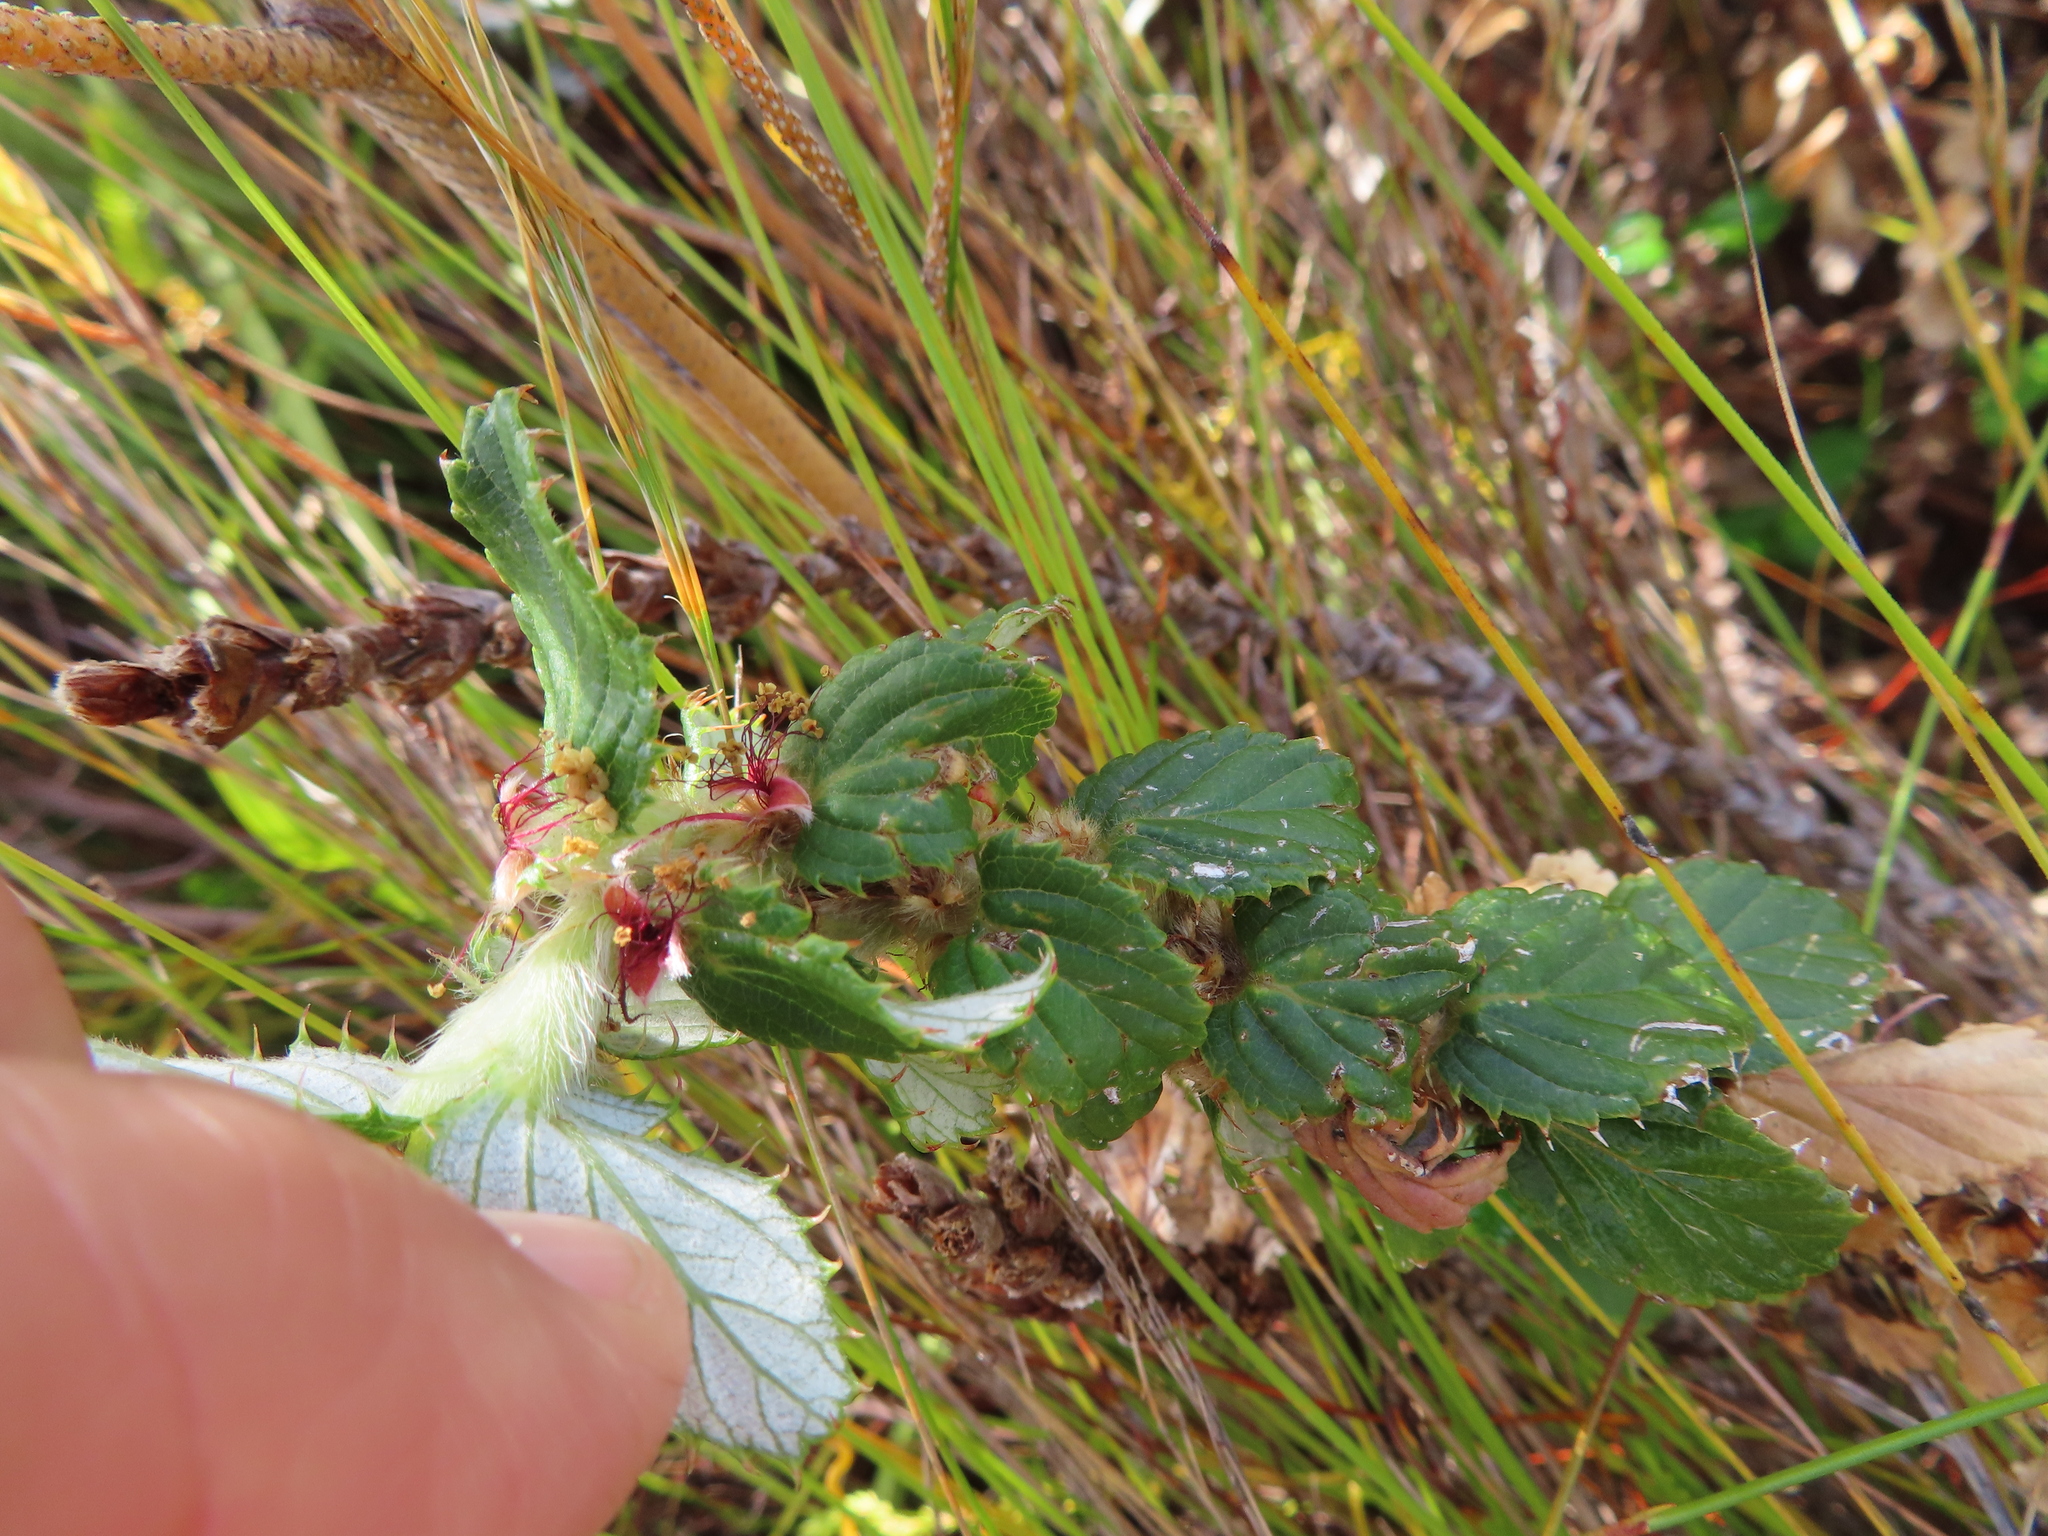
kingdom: Plantae
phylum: Tracheophyta
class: Magnoliopsida
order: Rosales
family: Rosaceae
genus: Cliffortia
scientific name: Cliffortia hirsuta
